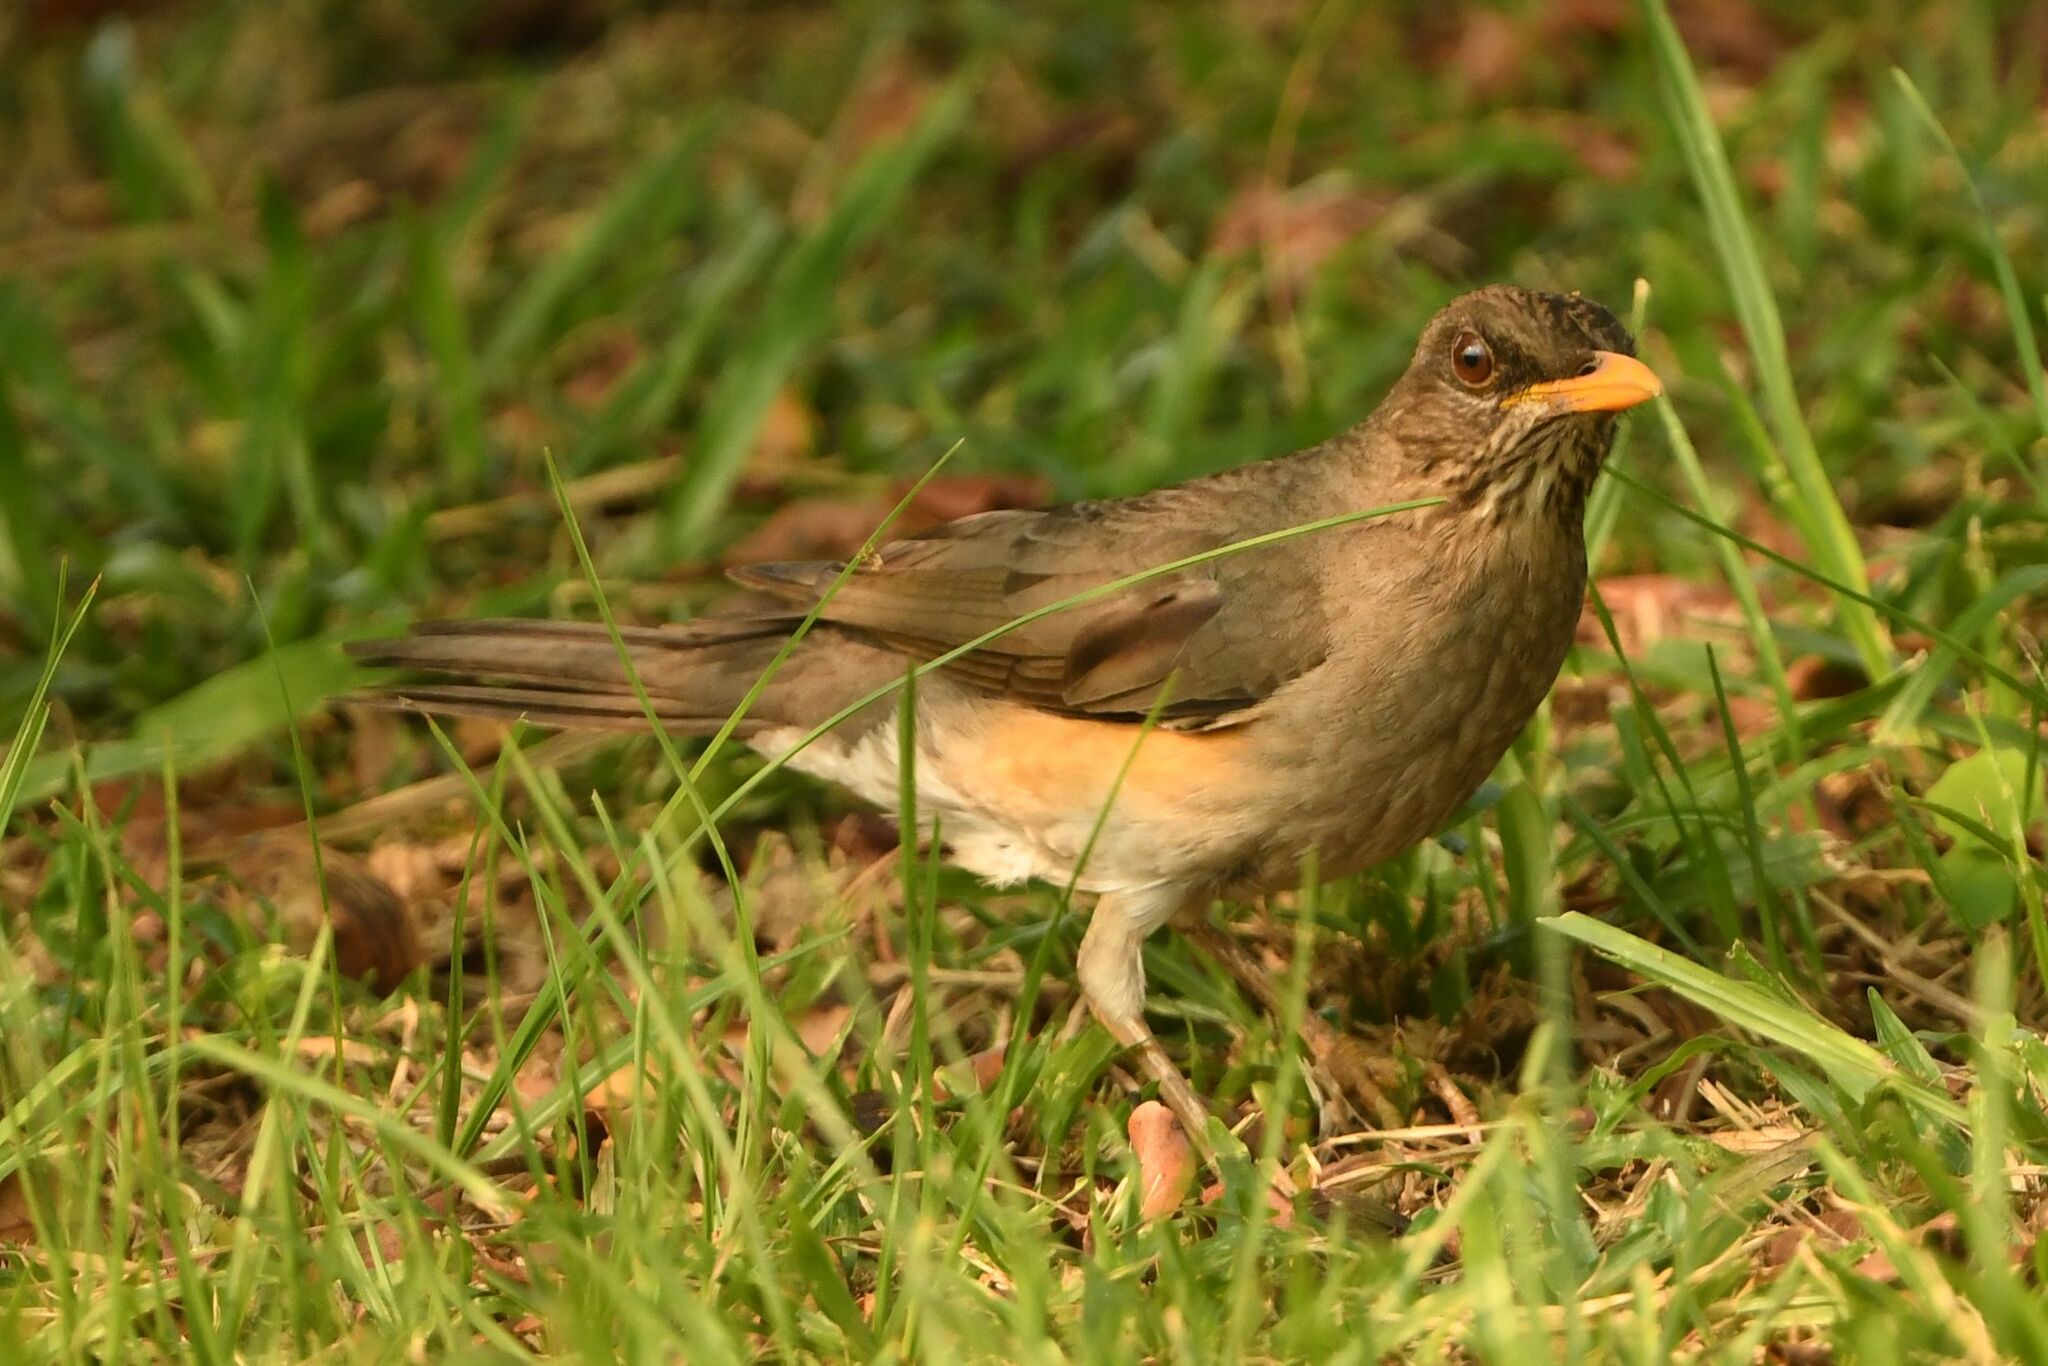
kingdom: Animalia
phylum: Chordata
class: Aves
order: Passeriformes
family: Turdidae
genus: Turdus
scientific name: Turdus pelios
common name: African thrush
